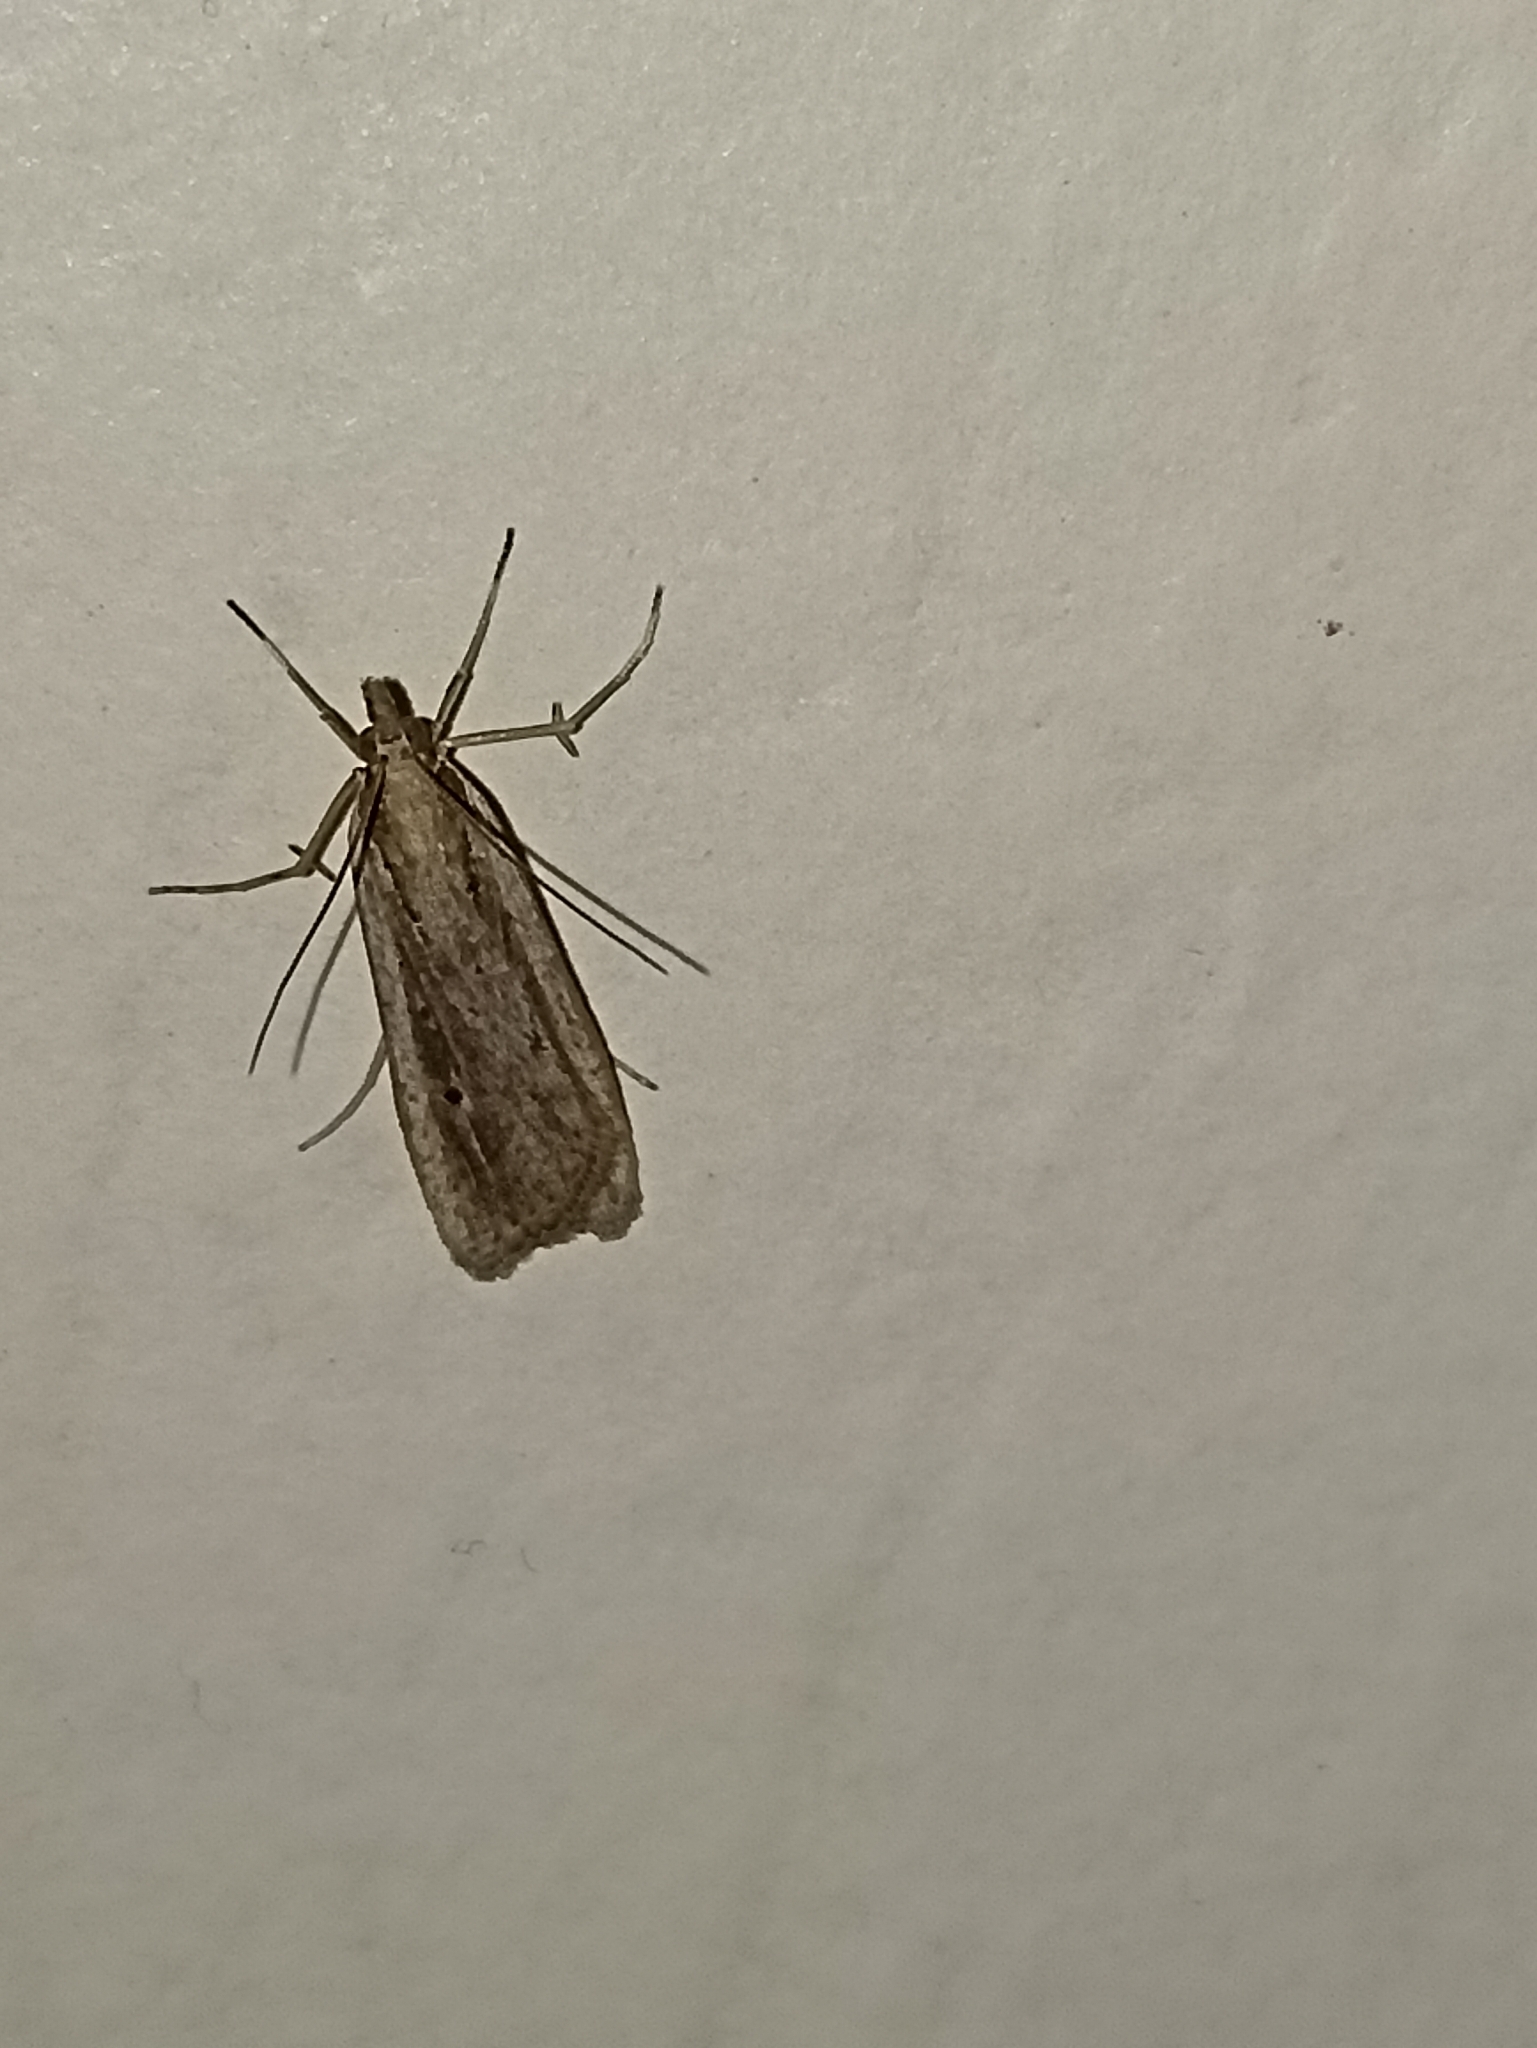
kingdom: Animalia
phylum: Arthropoda
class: Insecta
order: Lepidoptera
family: Crambidae
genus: Eudonia
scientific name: Eudonia sabulosella
